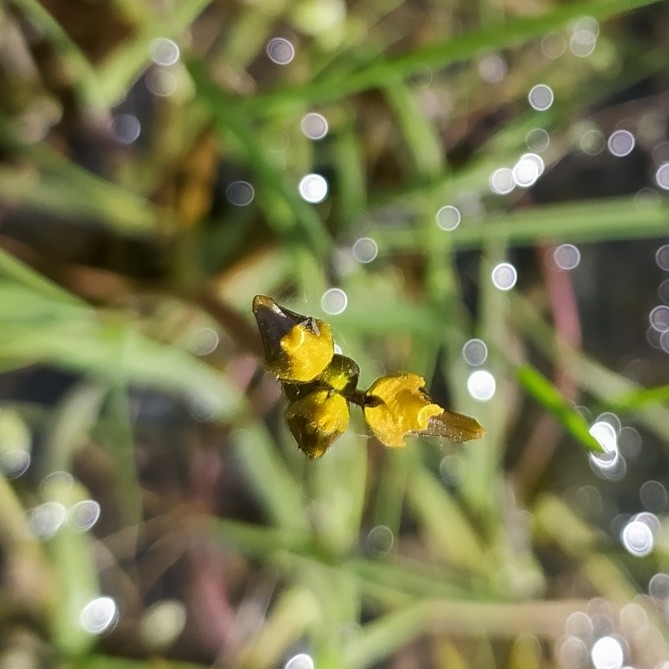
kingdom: Plantae
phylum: Tracheophyta
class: Magnoliopsida
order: Lamiales
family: Lentibulariaceae
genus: Utricularia
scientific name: Utricularia vulgaris
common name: Greater bladderwort
